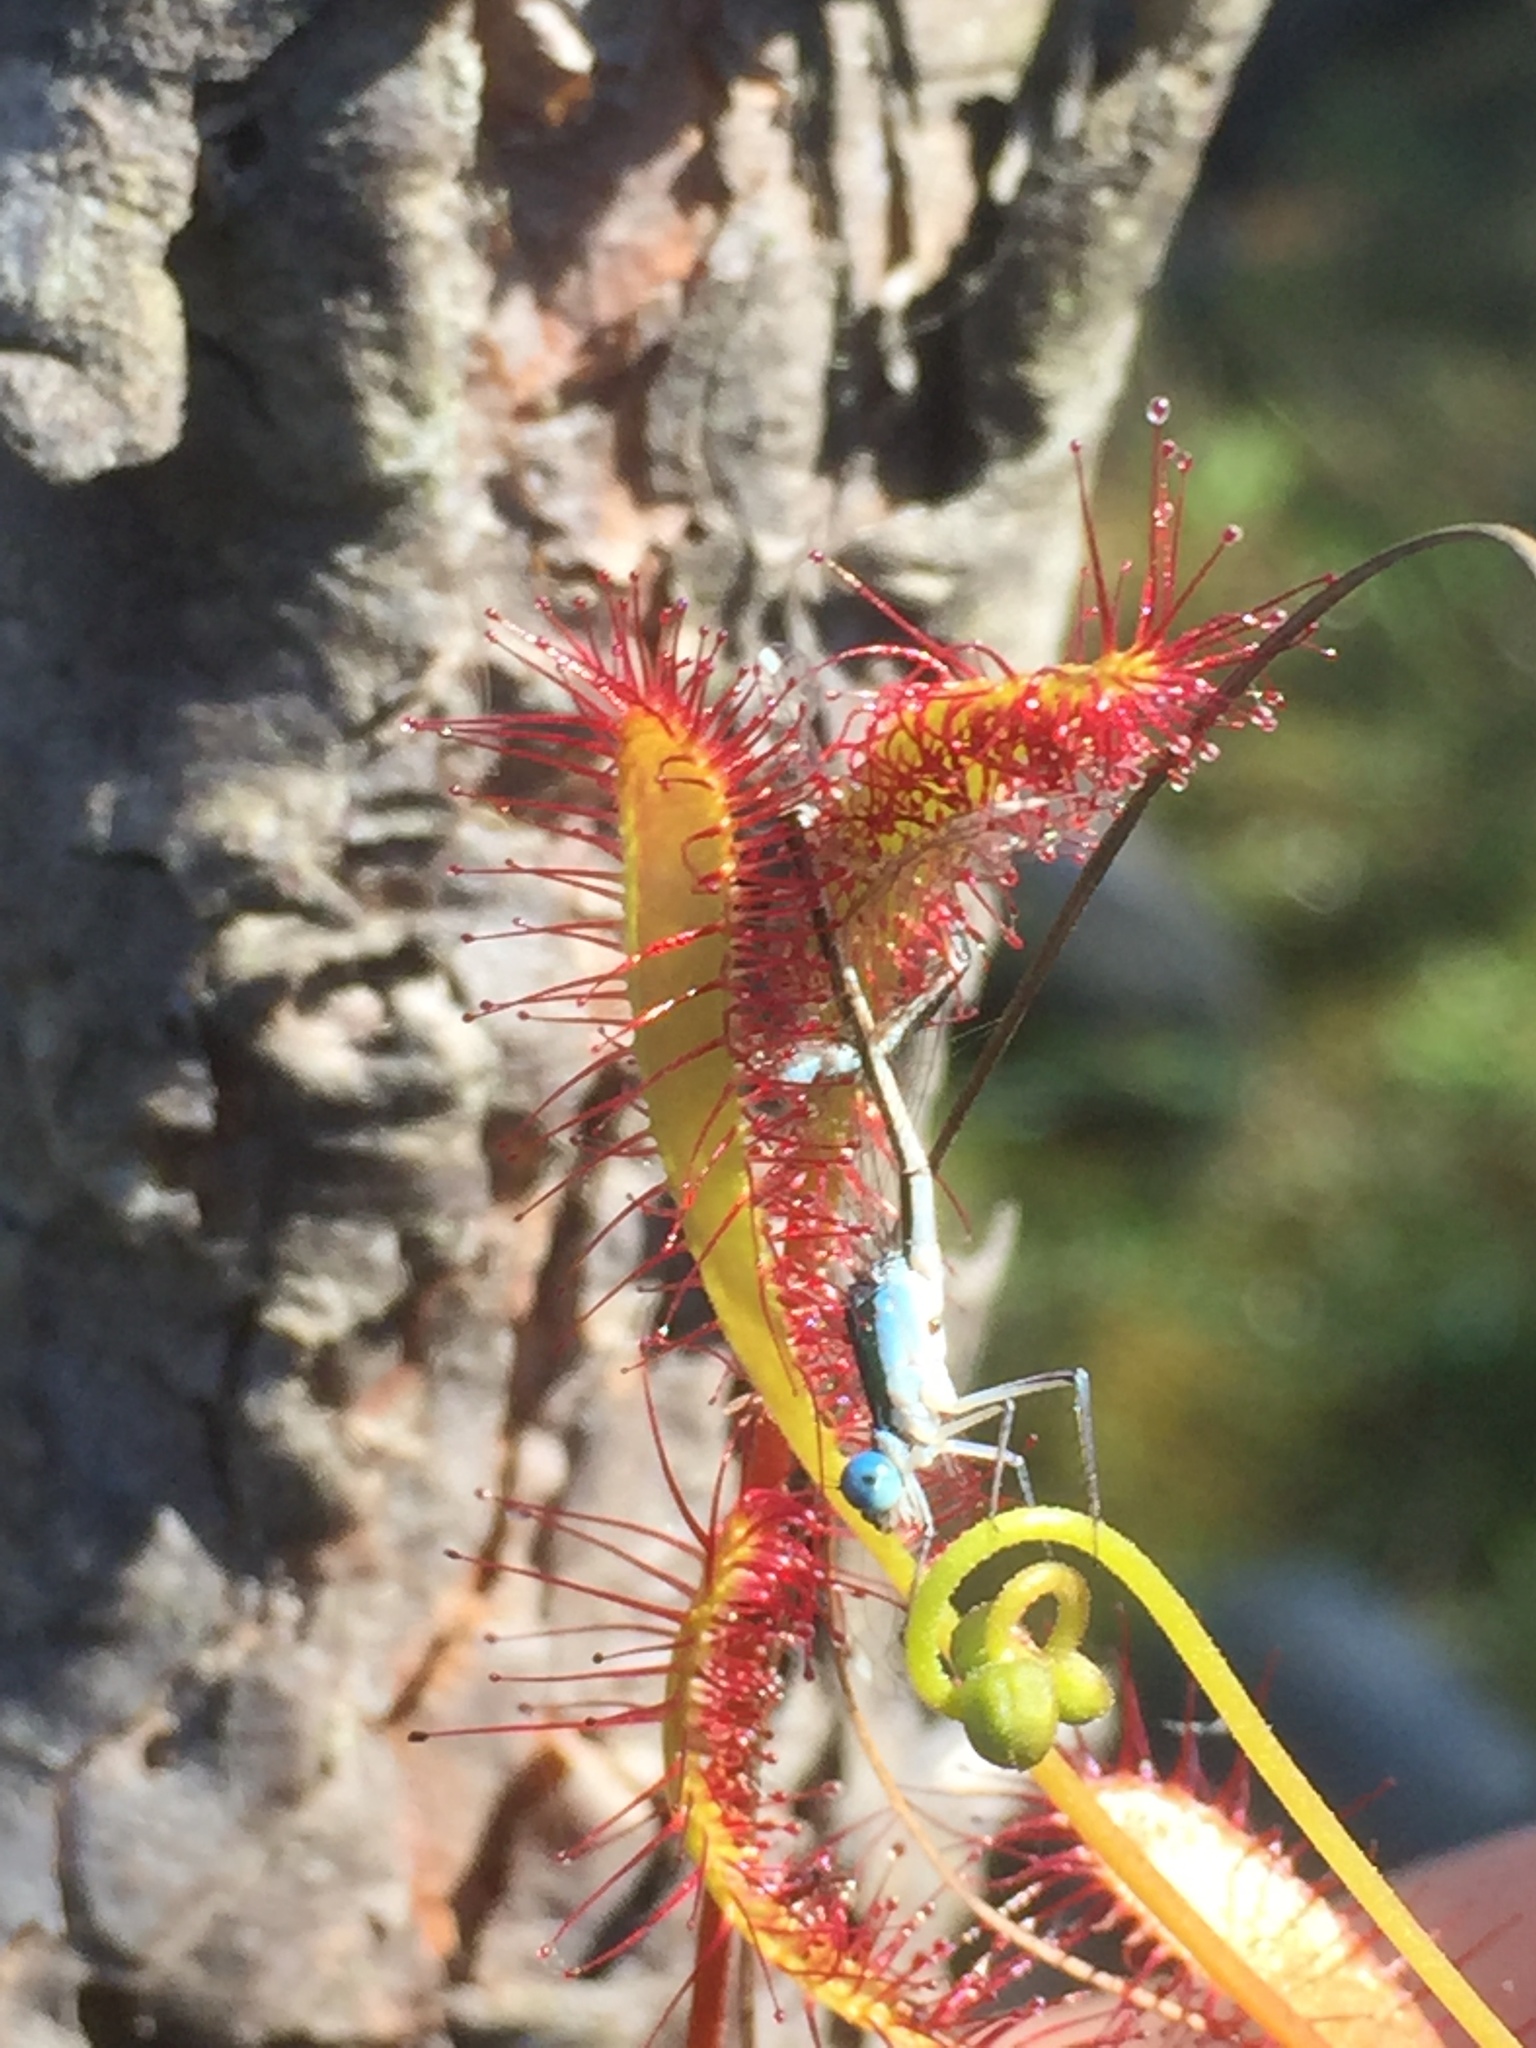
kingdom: Plantae
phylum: Tracheophyta
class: Magnoliopsida
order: Caryophyllales
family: Droseraceae
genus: Drosera
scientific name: Drosera anglica
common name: Great sundew
